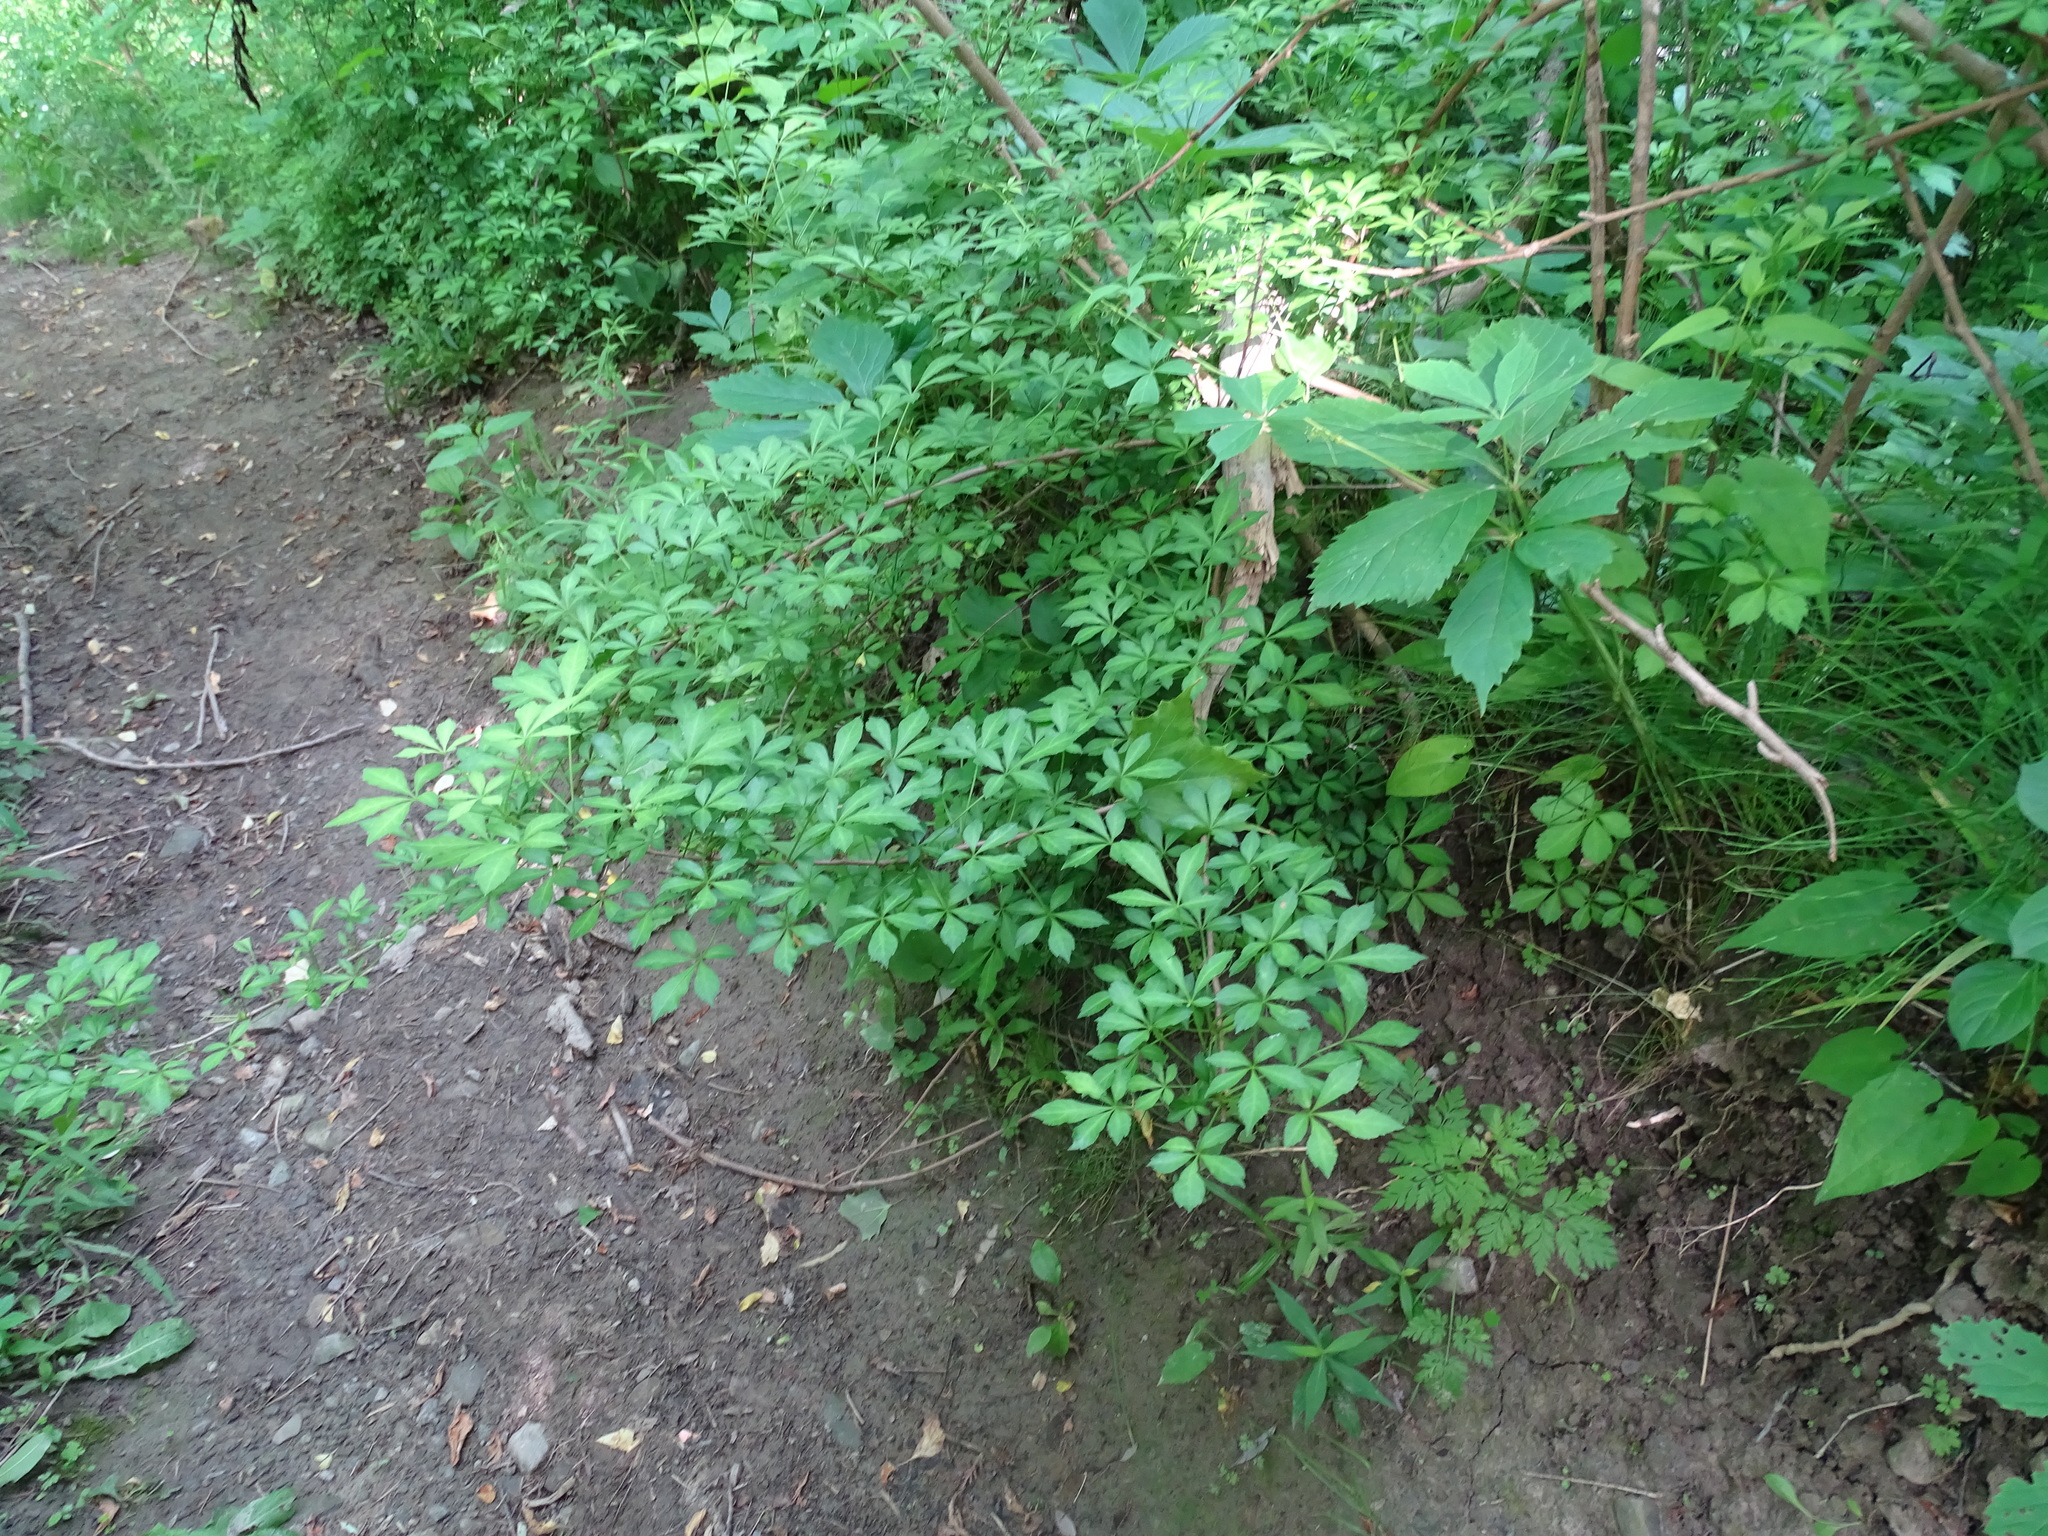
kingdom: Plantae
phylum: Tracheophyta
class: Magnoliopsida
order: Apiales
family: Araliaceae
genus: Eleutherococcus
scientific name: Eleutherococcus sieboldianus
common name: Ginseng
